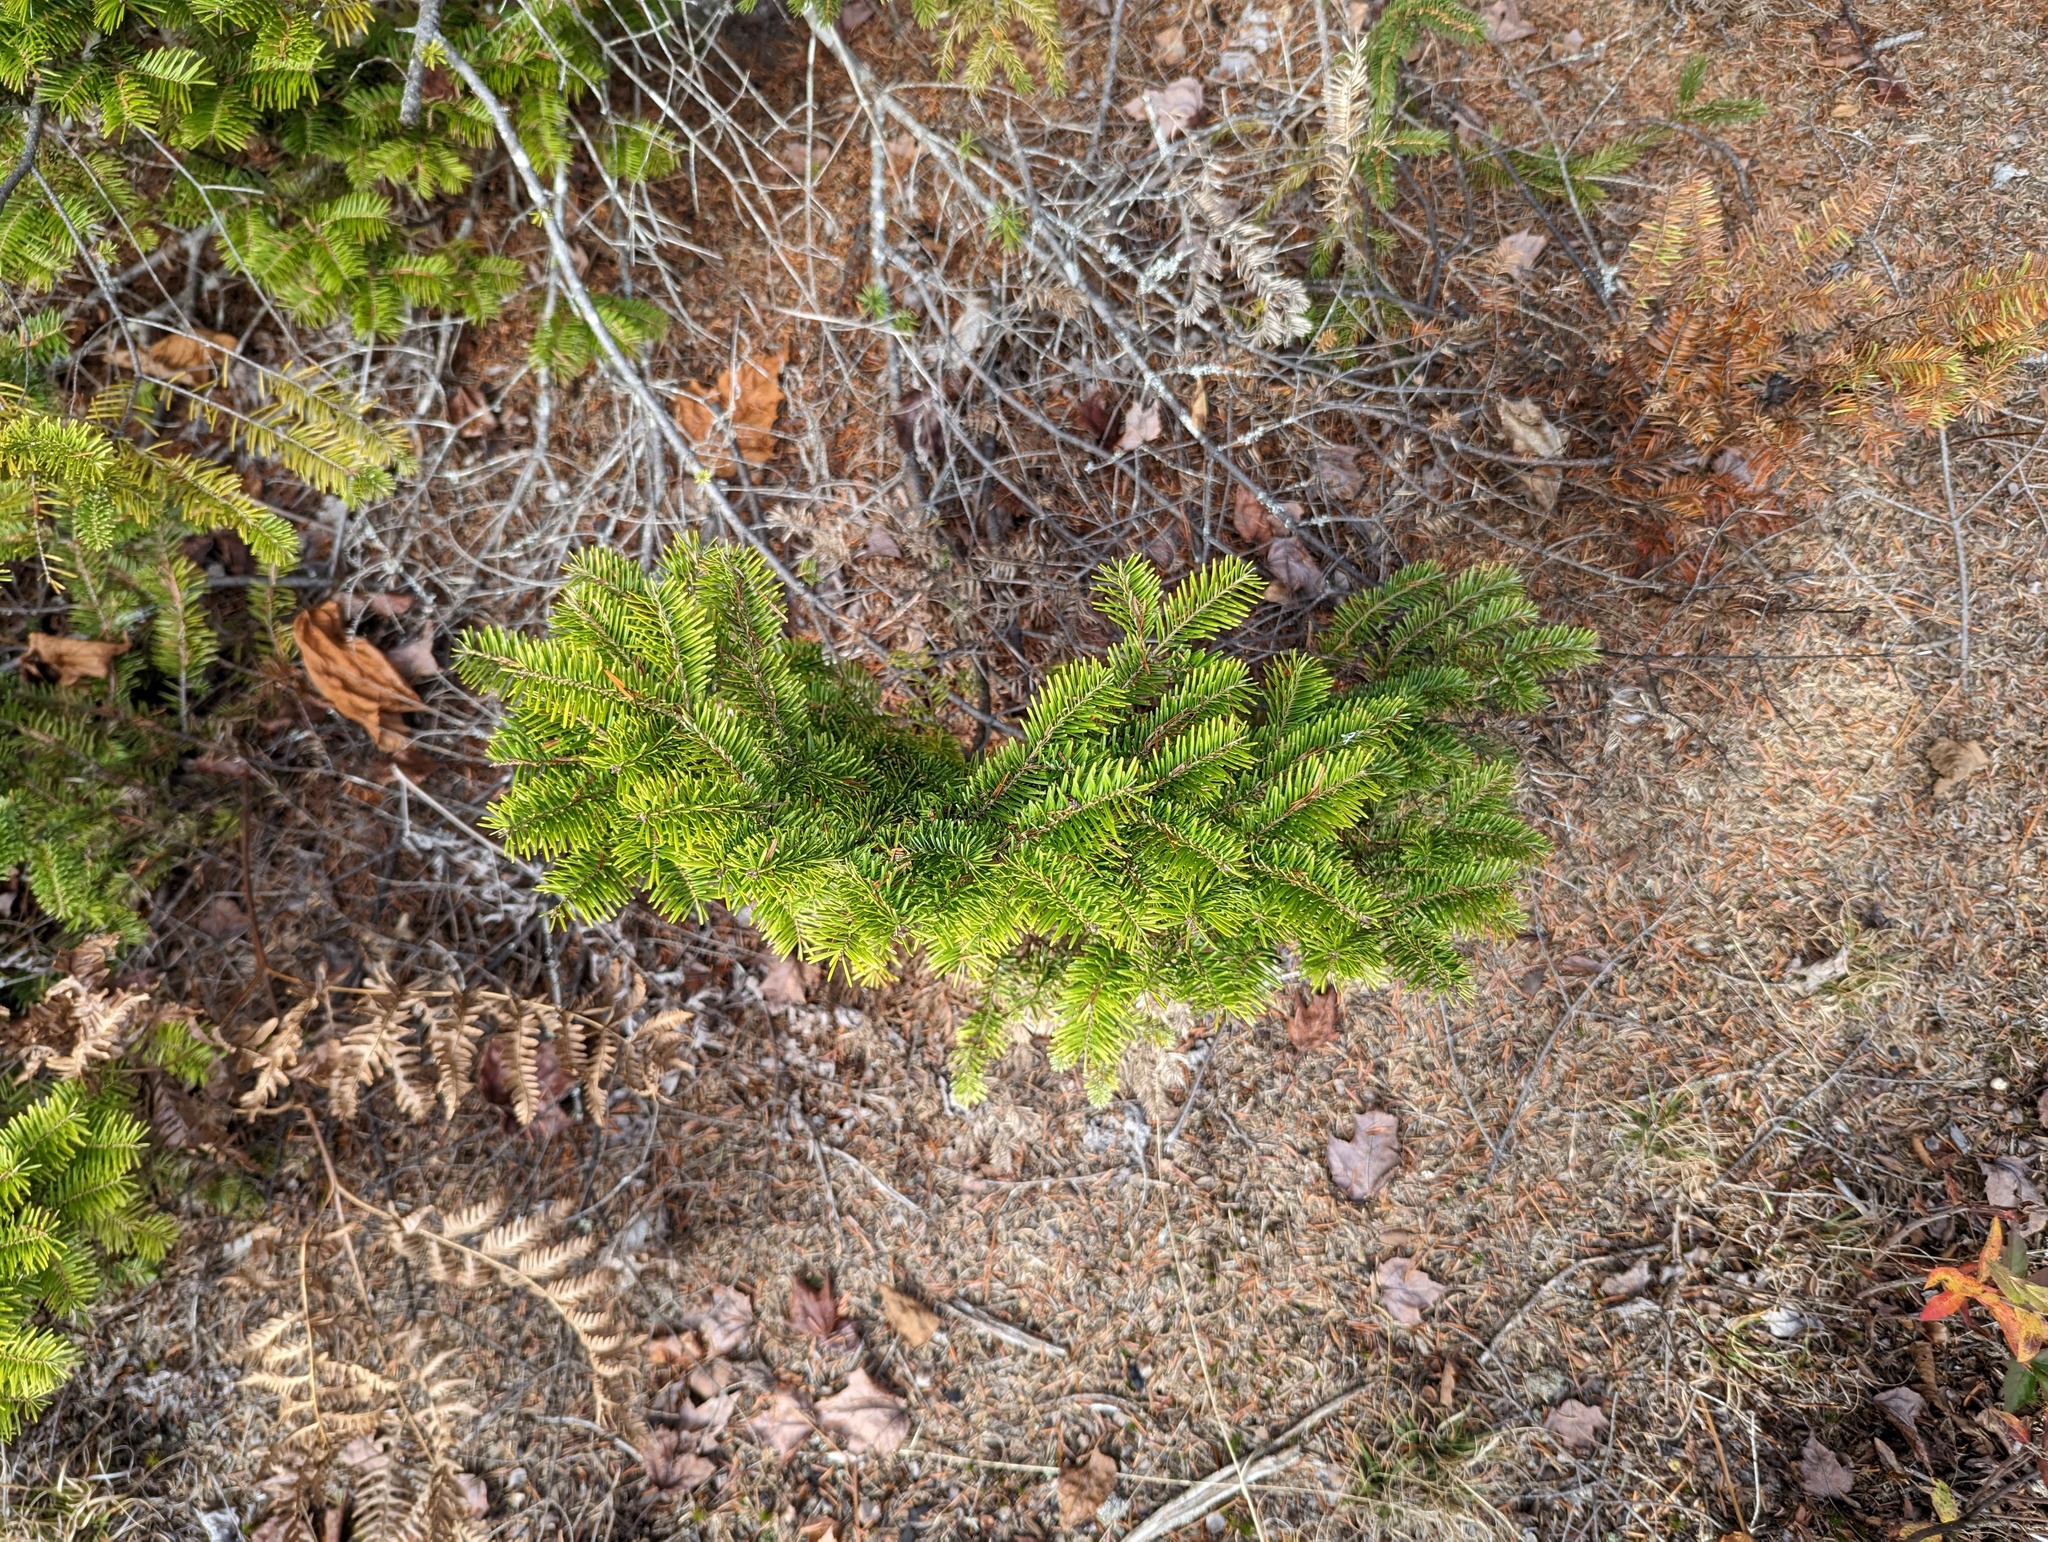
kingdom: Plantae
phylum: Tracheophyta
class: Pinopsida
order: Pinales
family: Pinaceae
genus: Abies
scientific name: Abies balsamea
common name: Balsam fir
